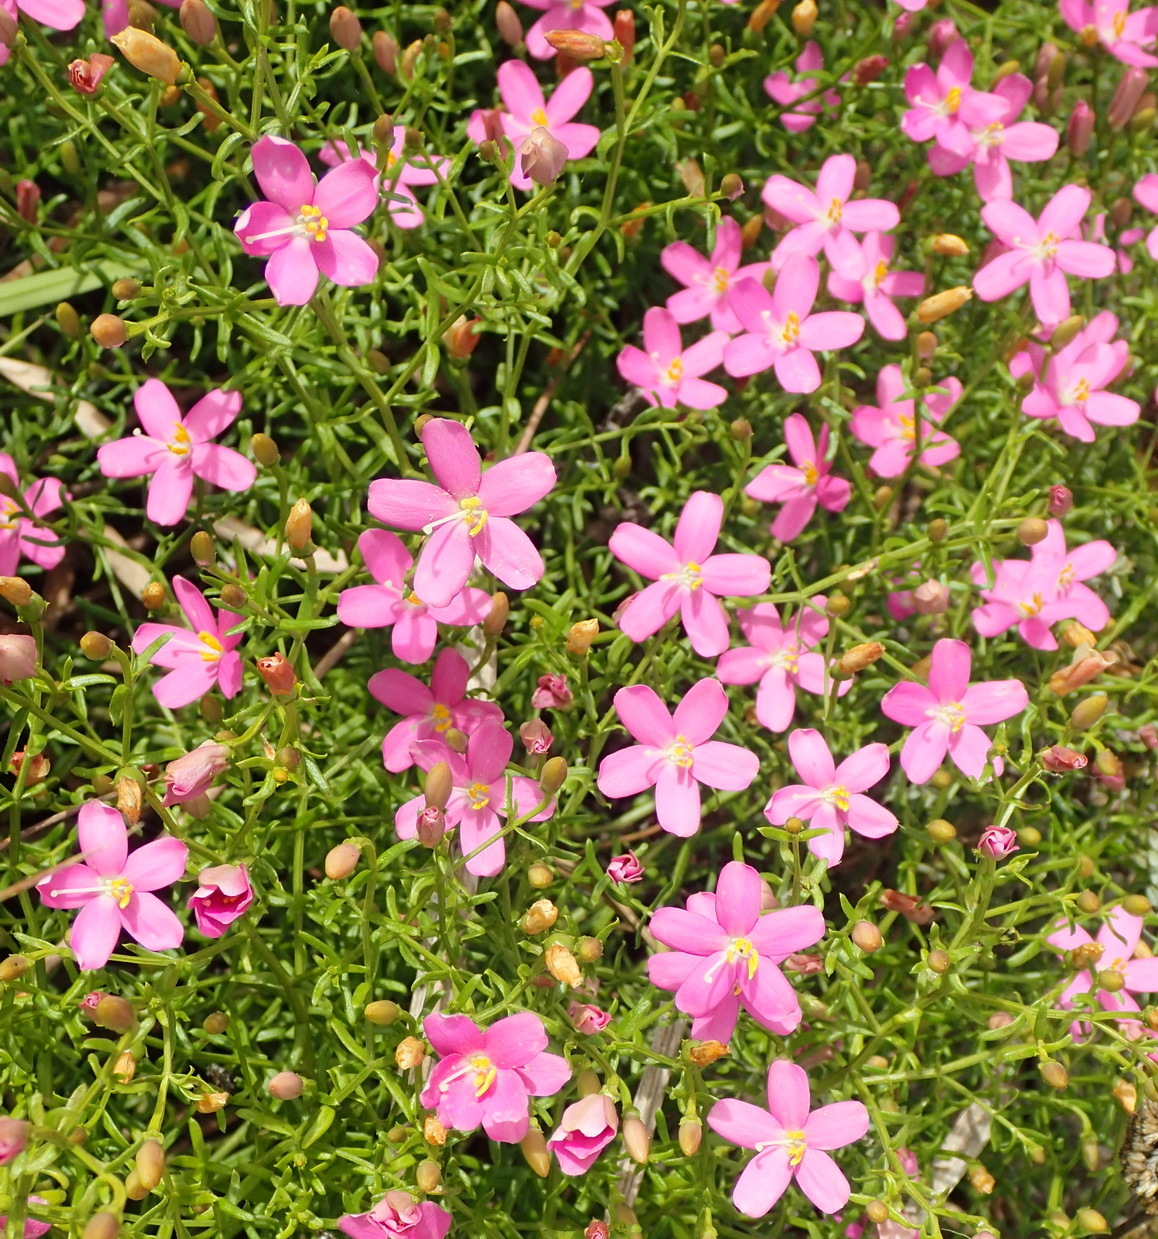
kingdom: Plantae
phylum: Tracheophyta
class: Magnoliopsida
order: Gentianales
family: Gentianaceae
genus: Chironia
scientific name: Chironia baccifera
